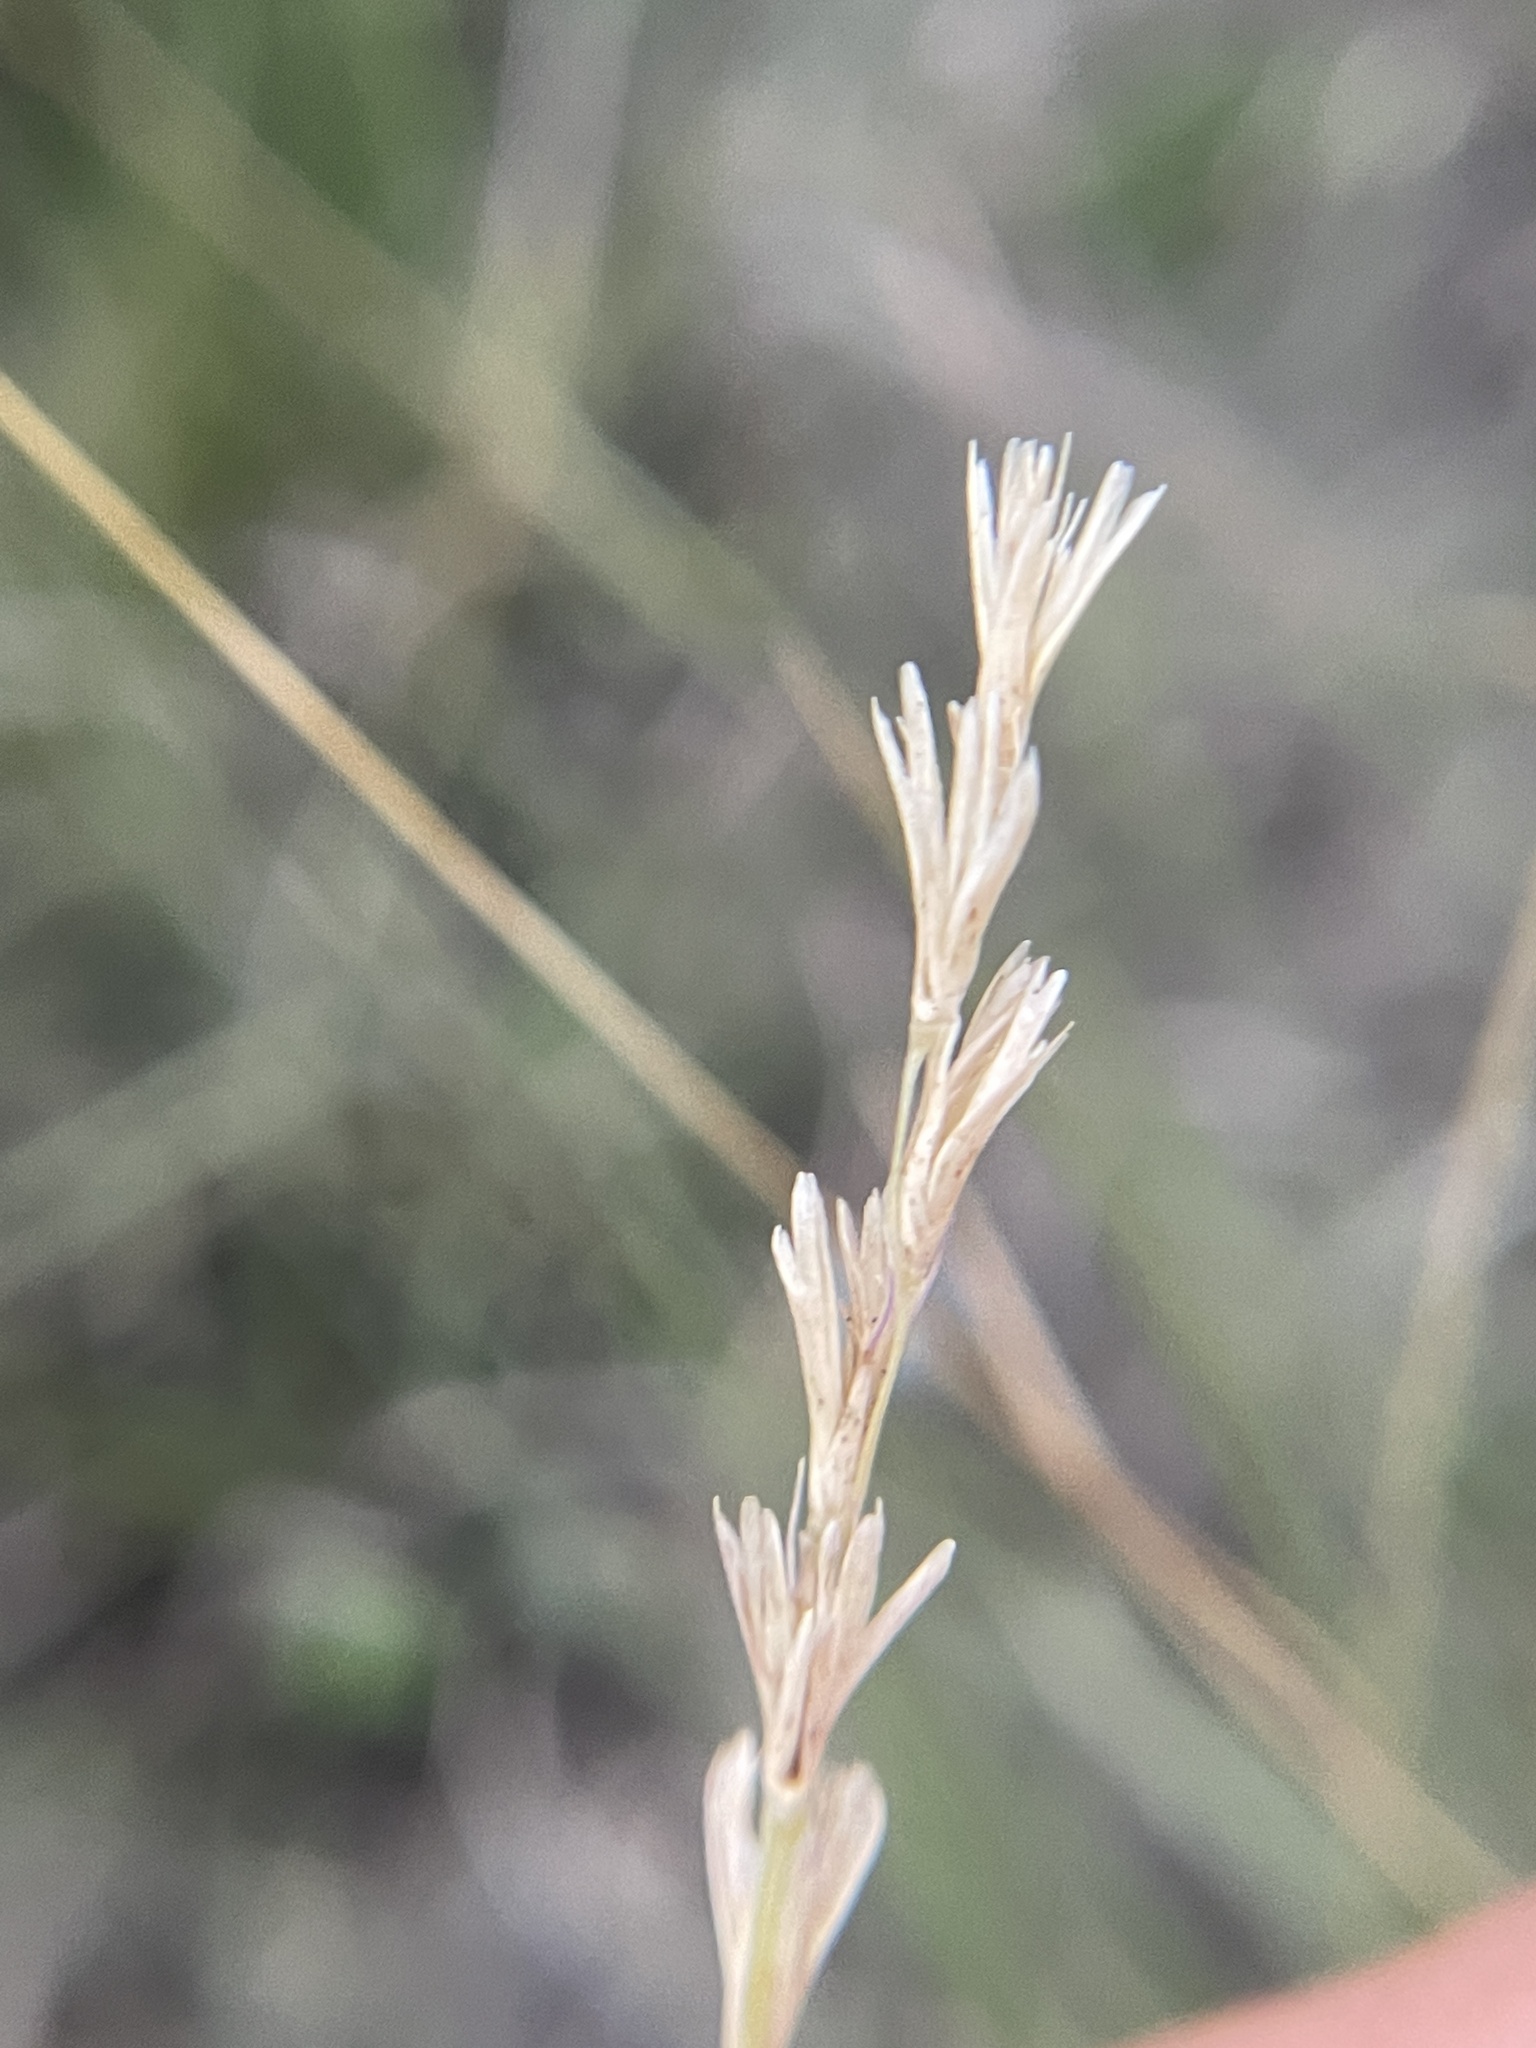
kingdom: Plantae
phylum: Tracheophyta
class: Liliopsida
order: Poales
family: Poaceae
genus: Hilaria
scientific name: Hilaria belangeri
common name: Curly-mesquite
